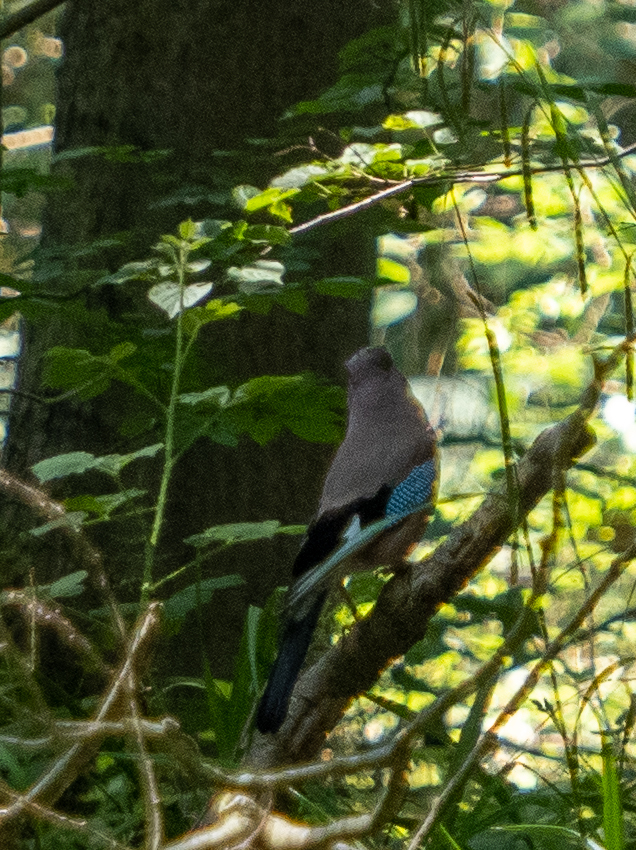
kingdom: Animalia
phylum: Chordata
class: Aves
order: Passeriformes
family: Corvidae
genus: Garrulus
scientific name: Garrulus glandarius
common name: Eurasian jay
